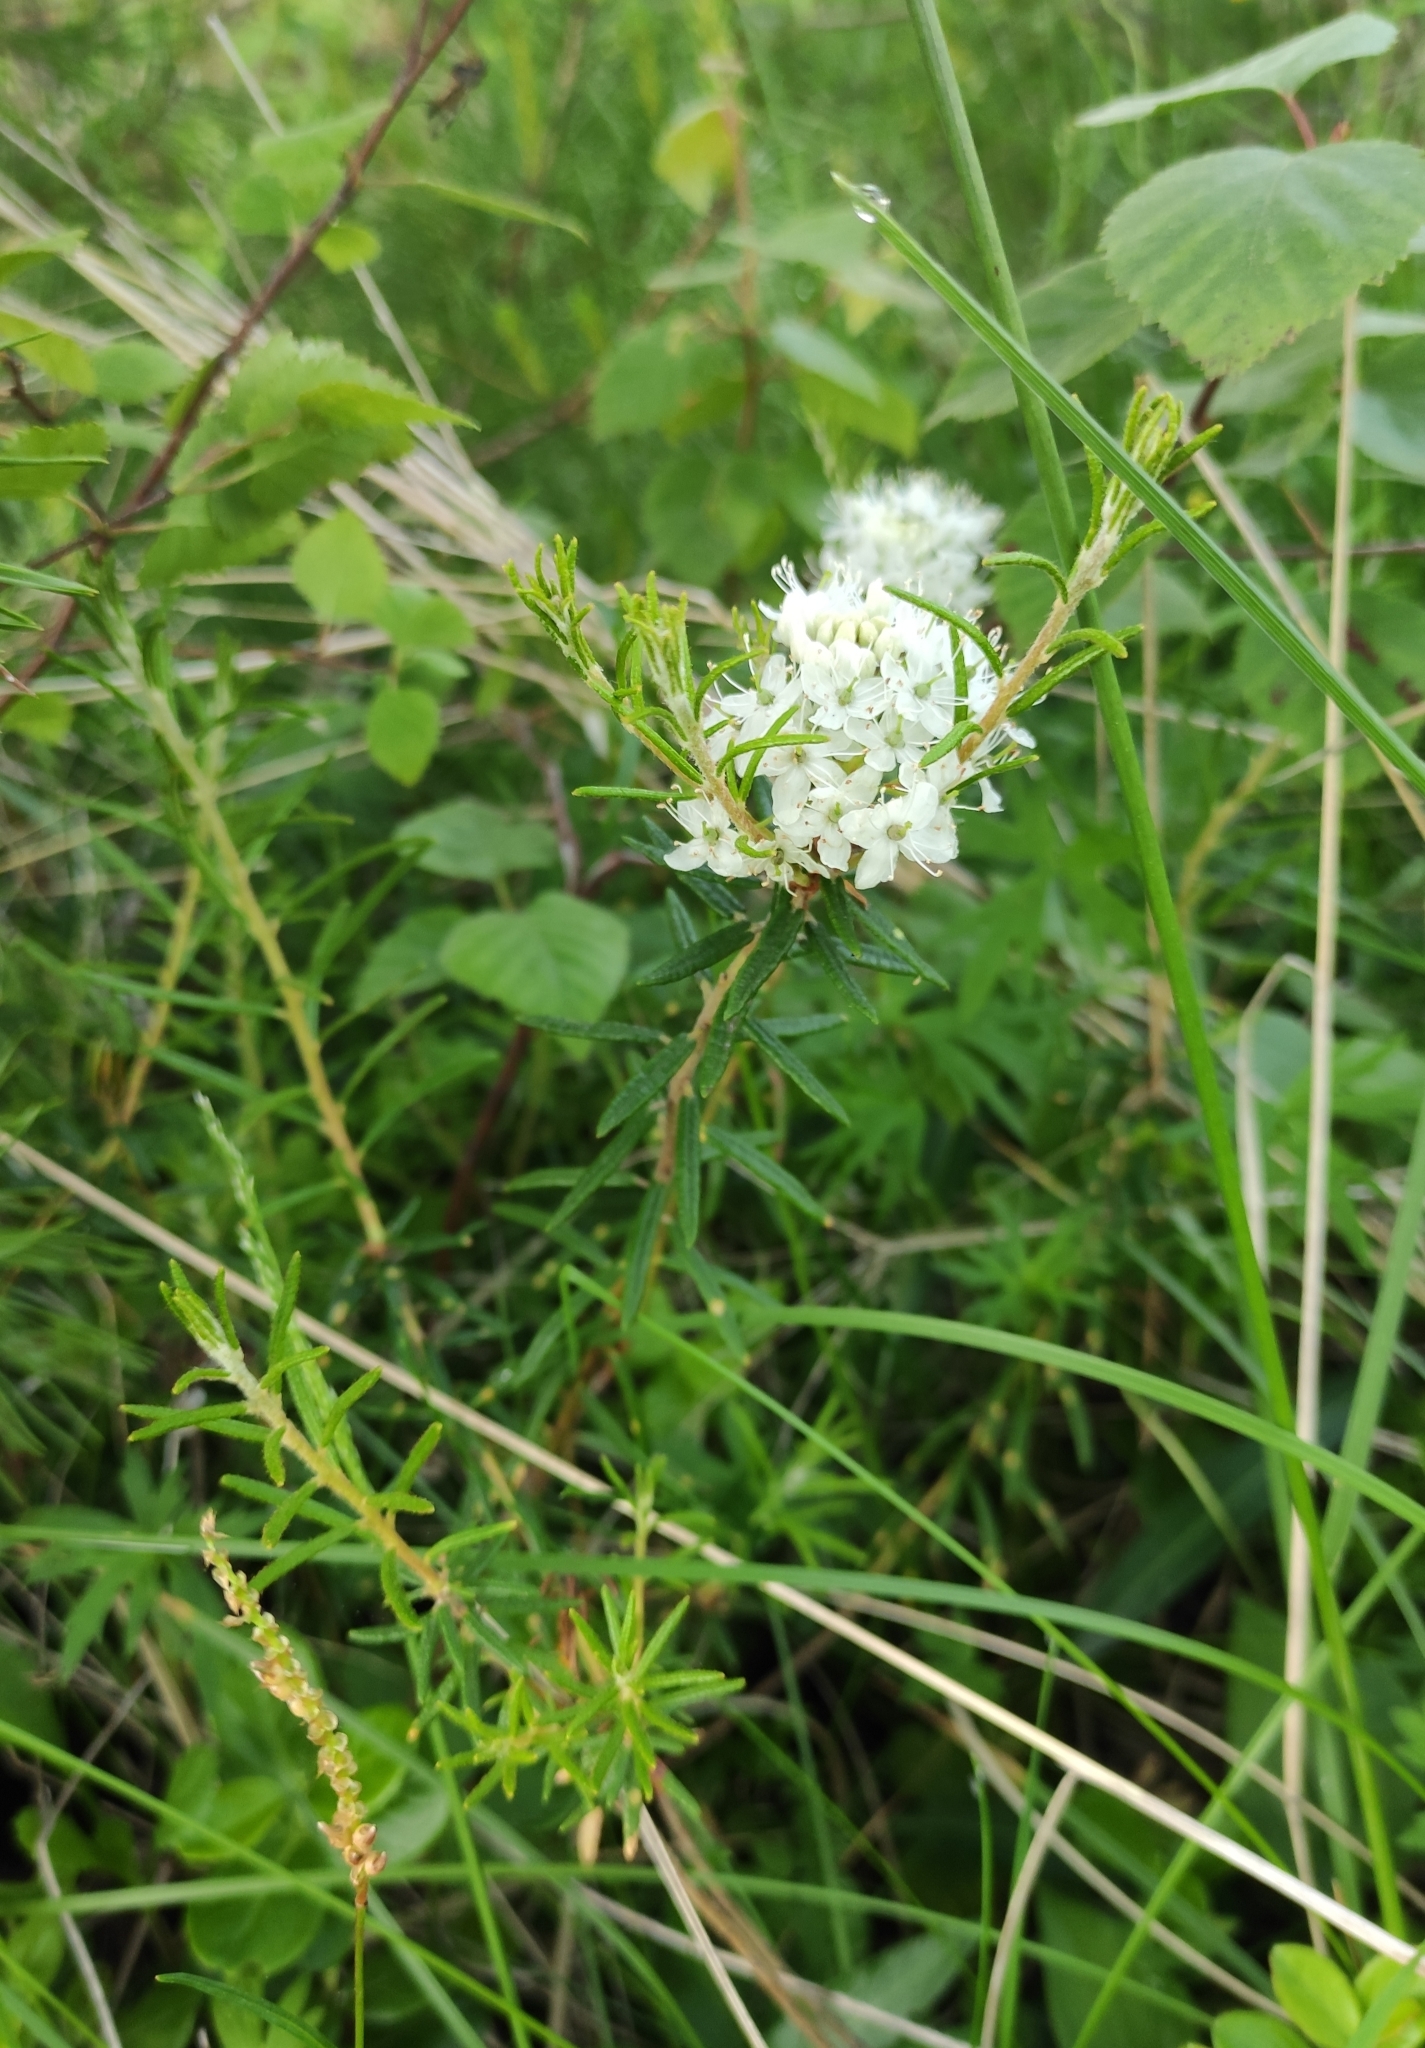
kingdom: Plantae
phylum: Tracheophyta
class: Magnoliopsida
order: Ericales
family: Ericaceae
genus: Rhododendron
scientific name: Rhododendron tomentosum
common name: Marsh labrador tea
